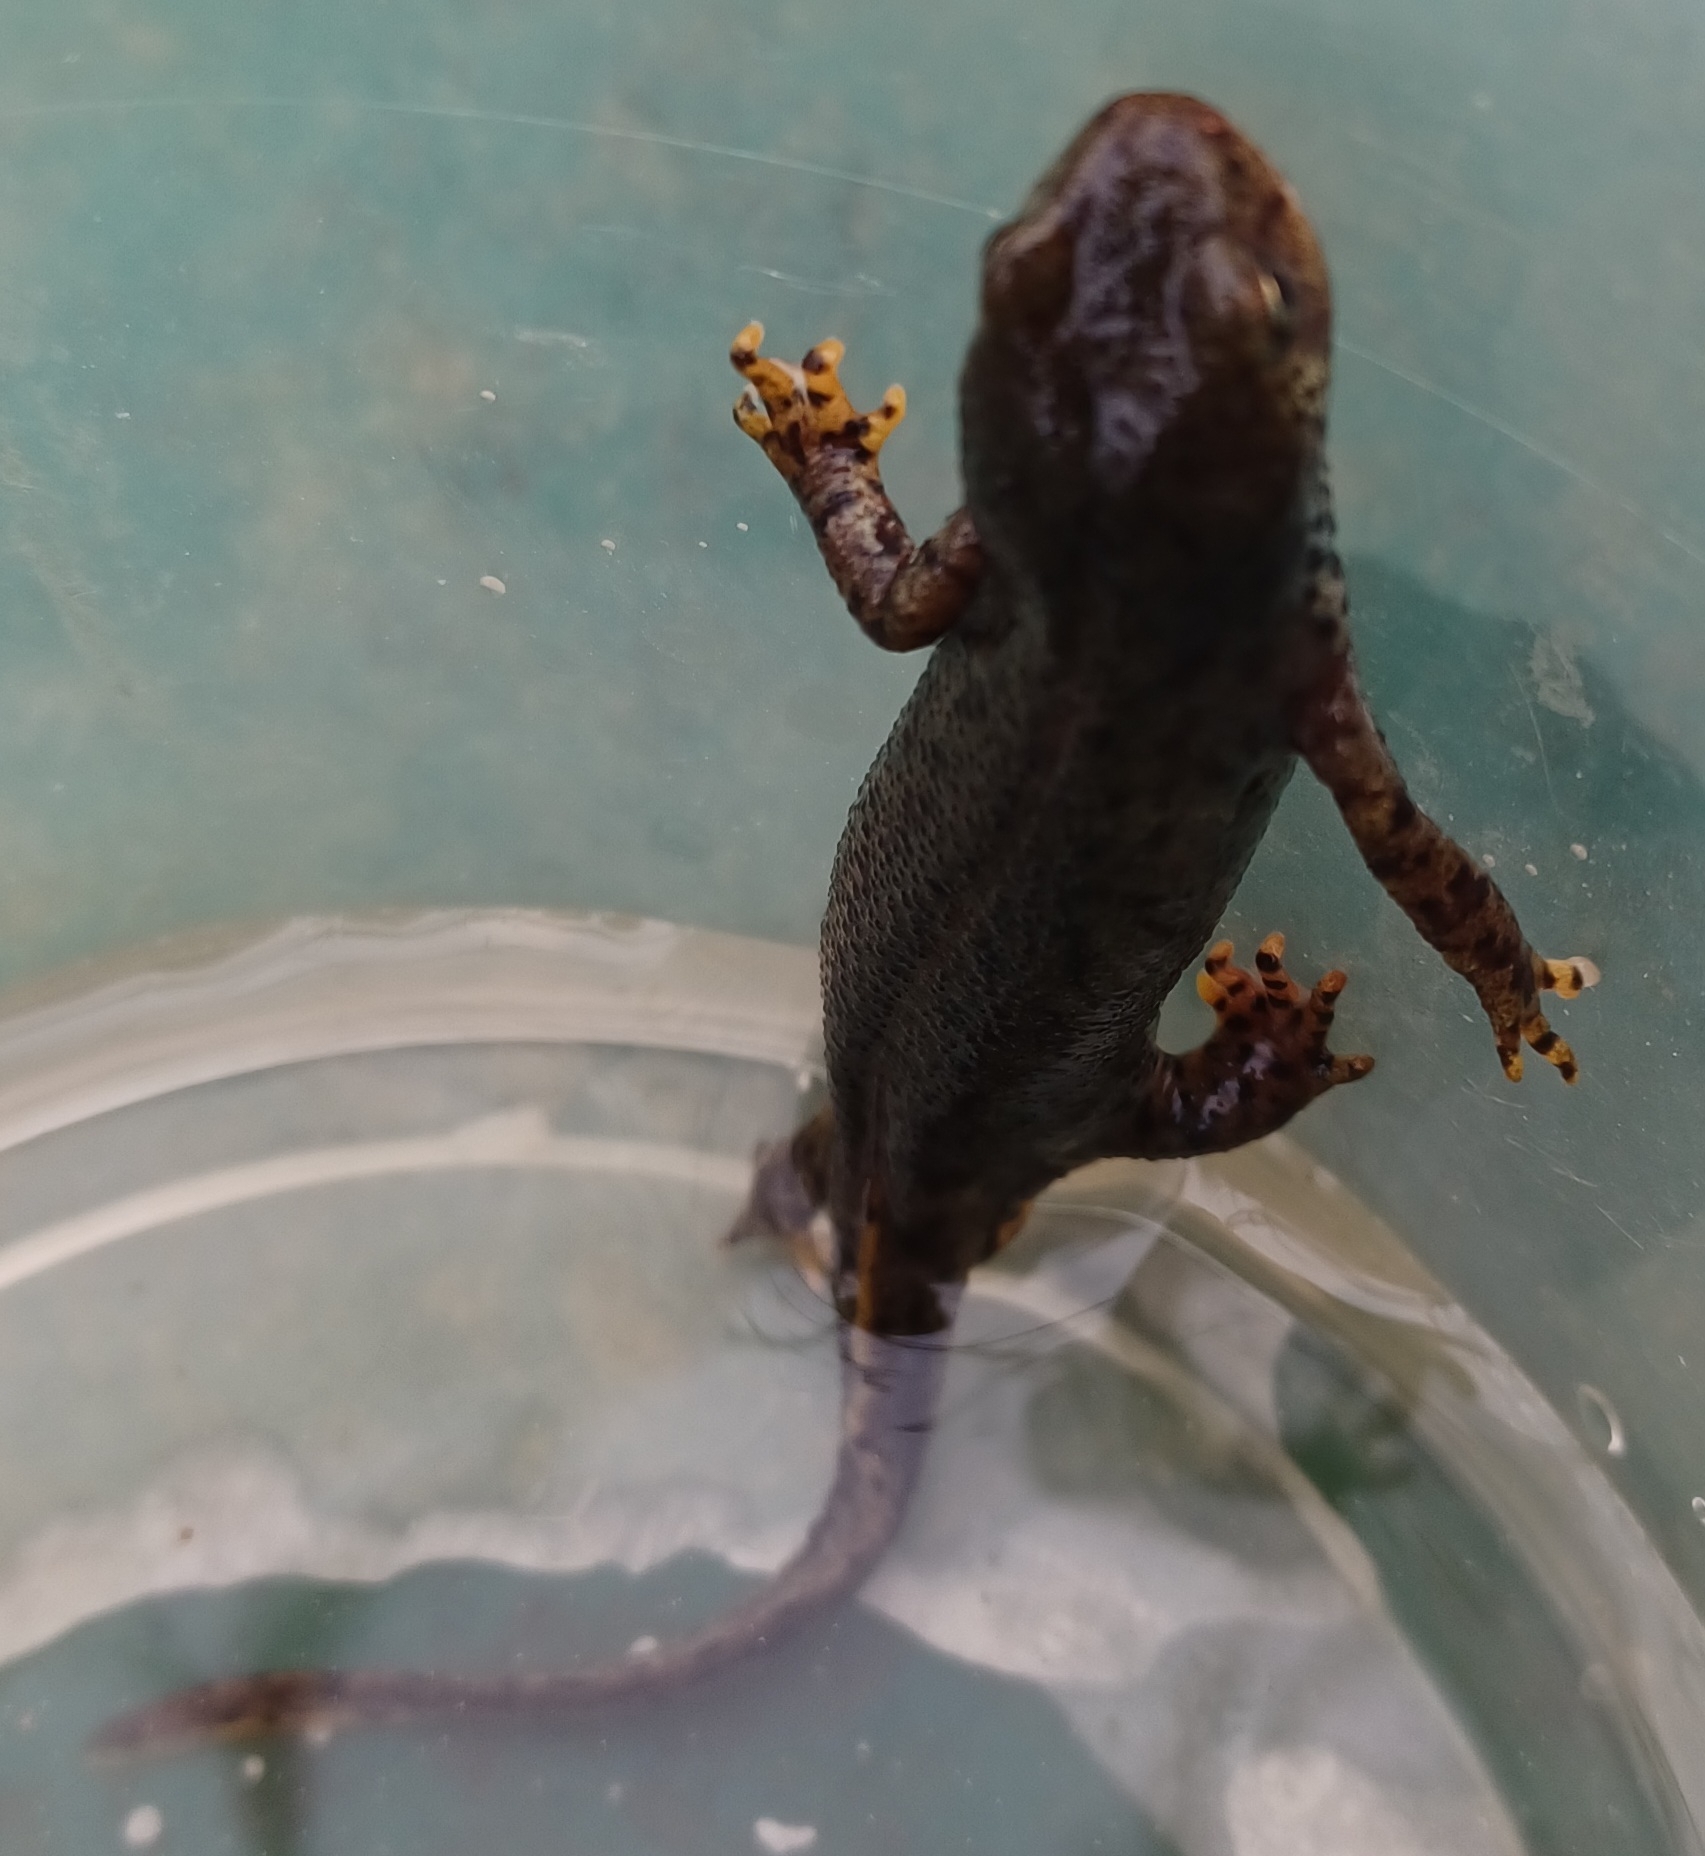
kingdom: Animalia
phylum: Chordata
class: Amphibia
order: Caudata
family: Salamandridae
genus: Ichthyosaura
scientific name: Ichthyosaura alpestris
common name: Alpine newt
